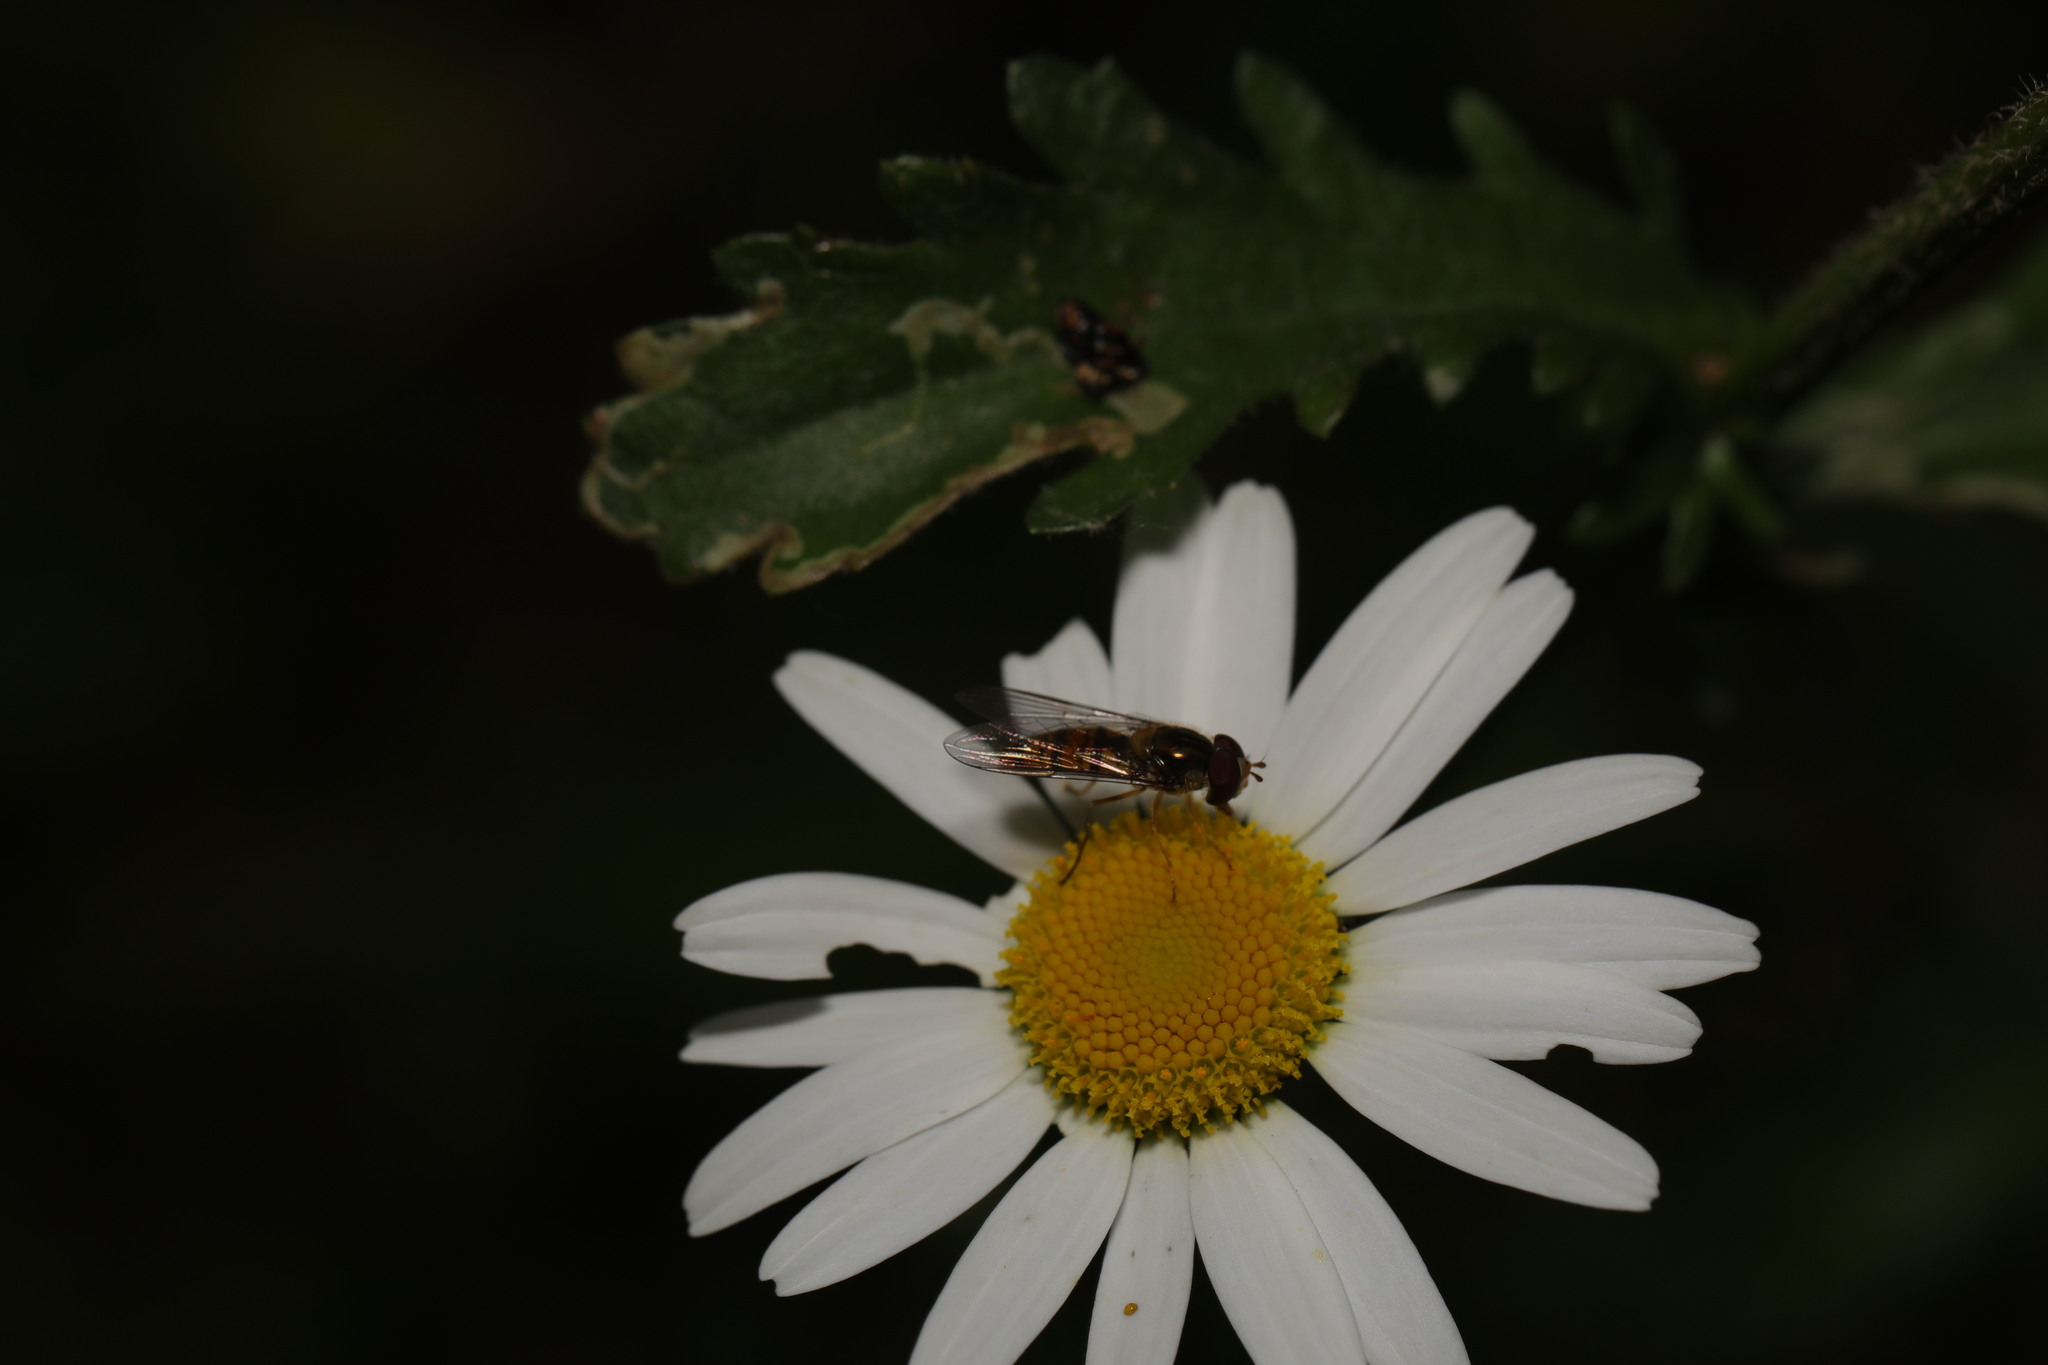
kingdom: Animalia
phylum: Arthropoda
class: Insecta
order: Diptera
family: Syrphidae
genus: Episyrphus
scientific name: Episyrphus balteatus
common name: Marmalade hoverfly
